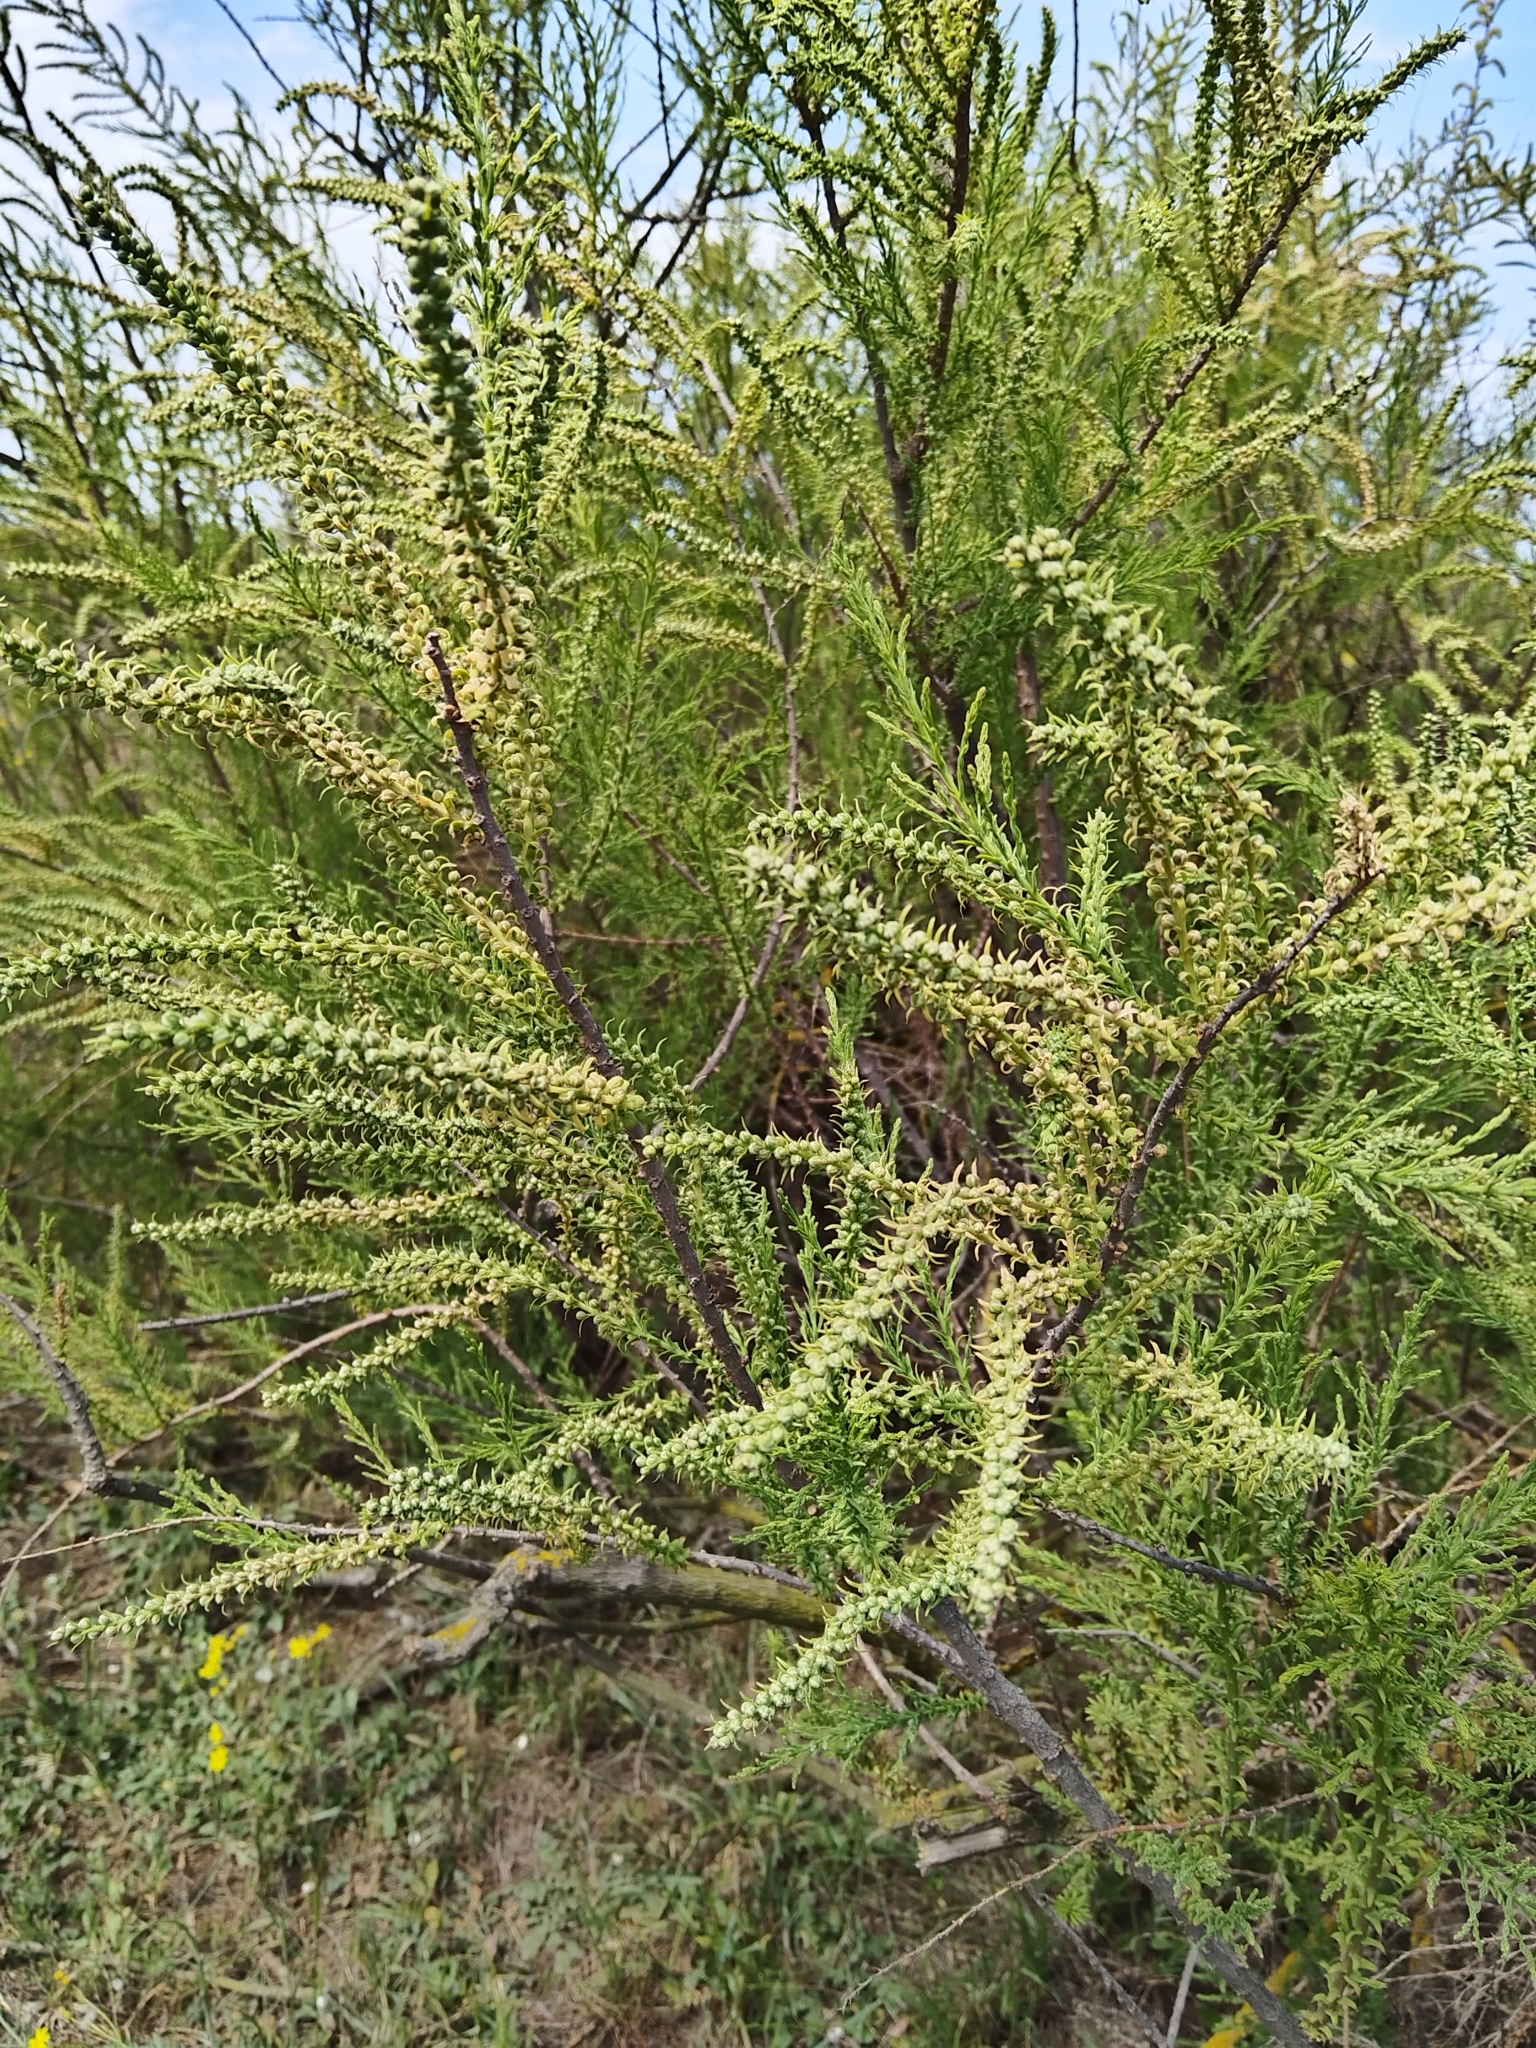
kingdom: Plantae
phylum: Tracheophyta
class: Magnoliopsida
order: Caryophyllales
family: Tamaricaceae
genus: Tamarix
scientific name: Tamarix meyeri
